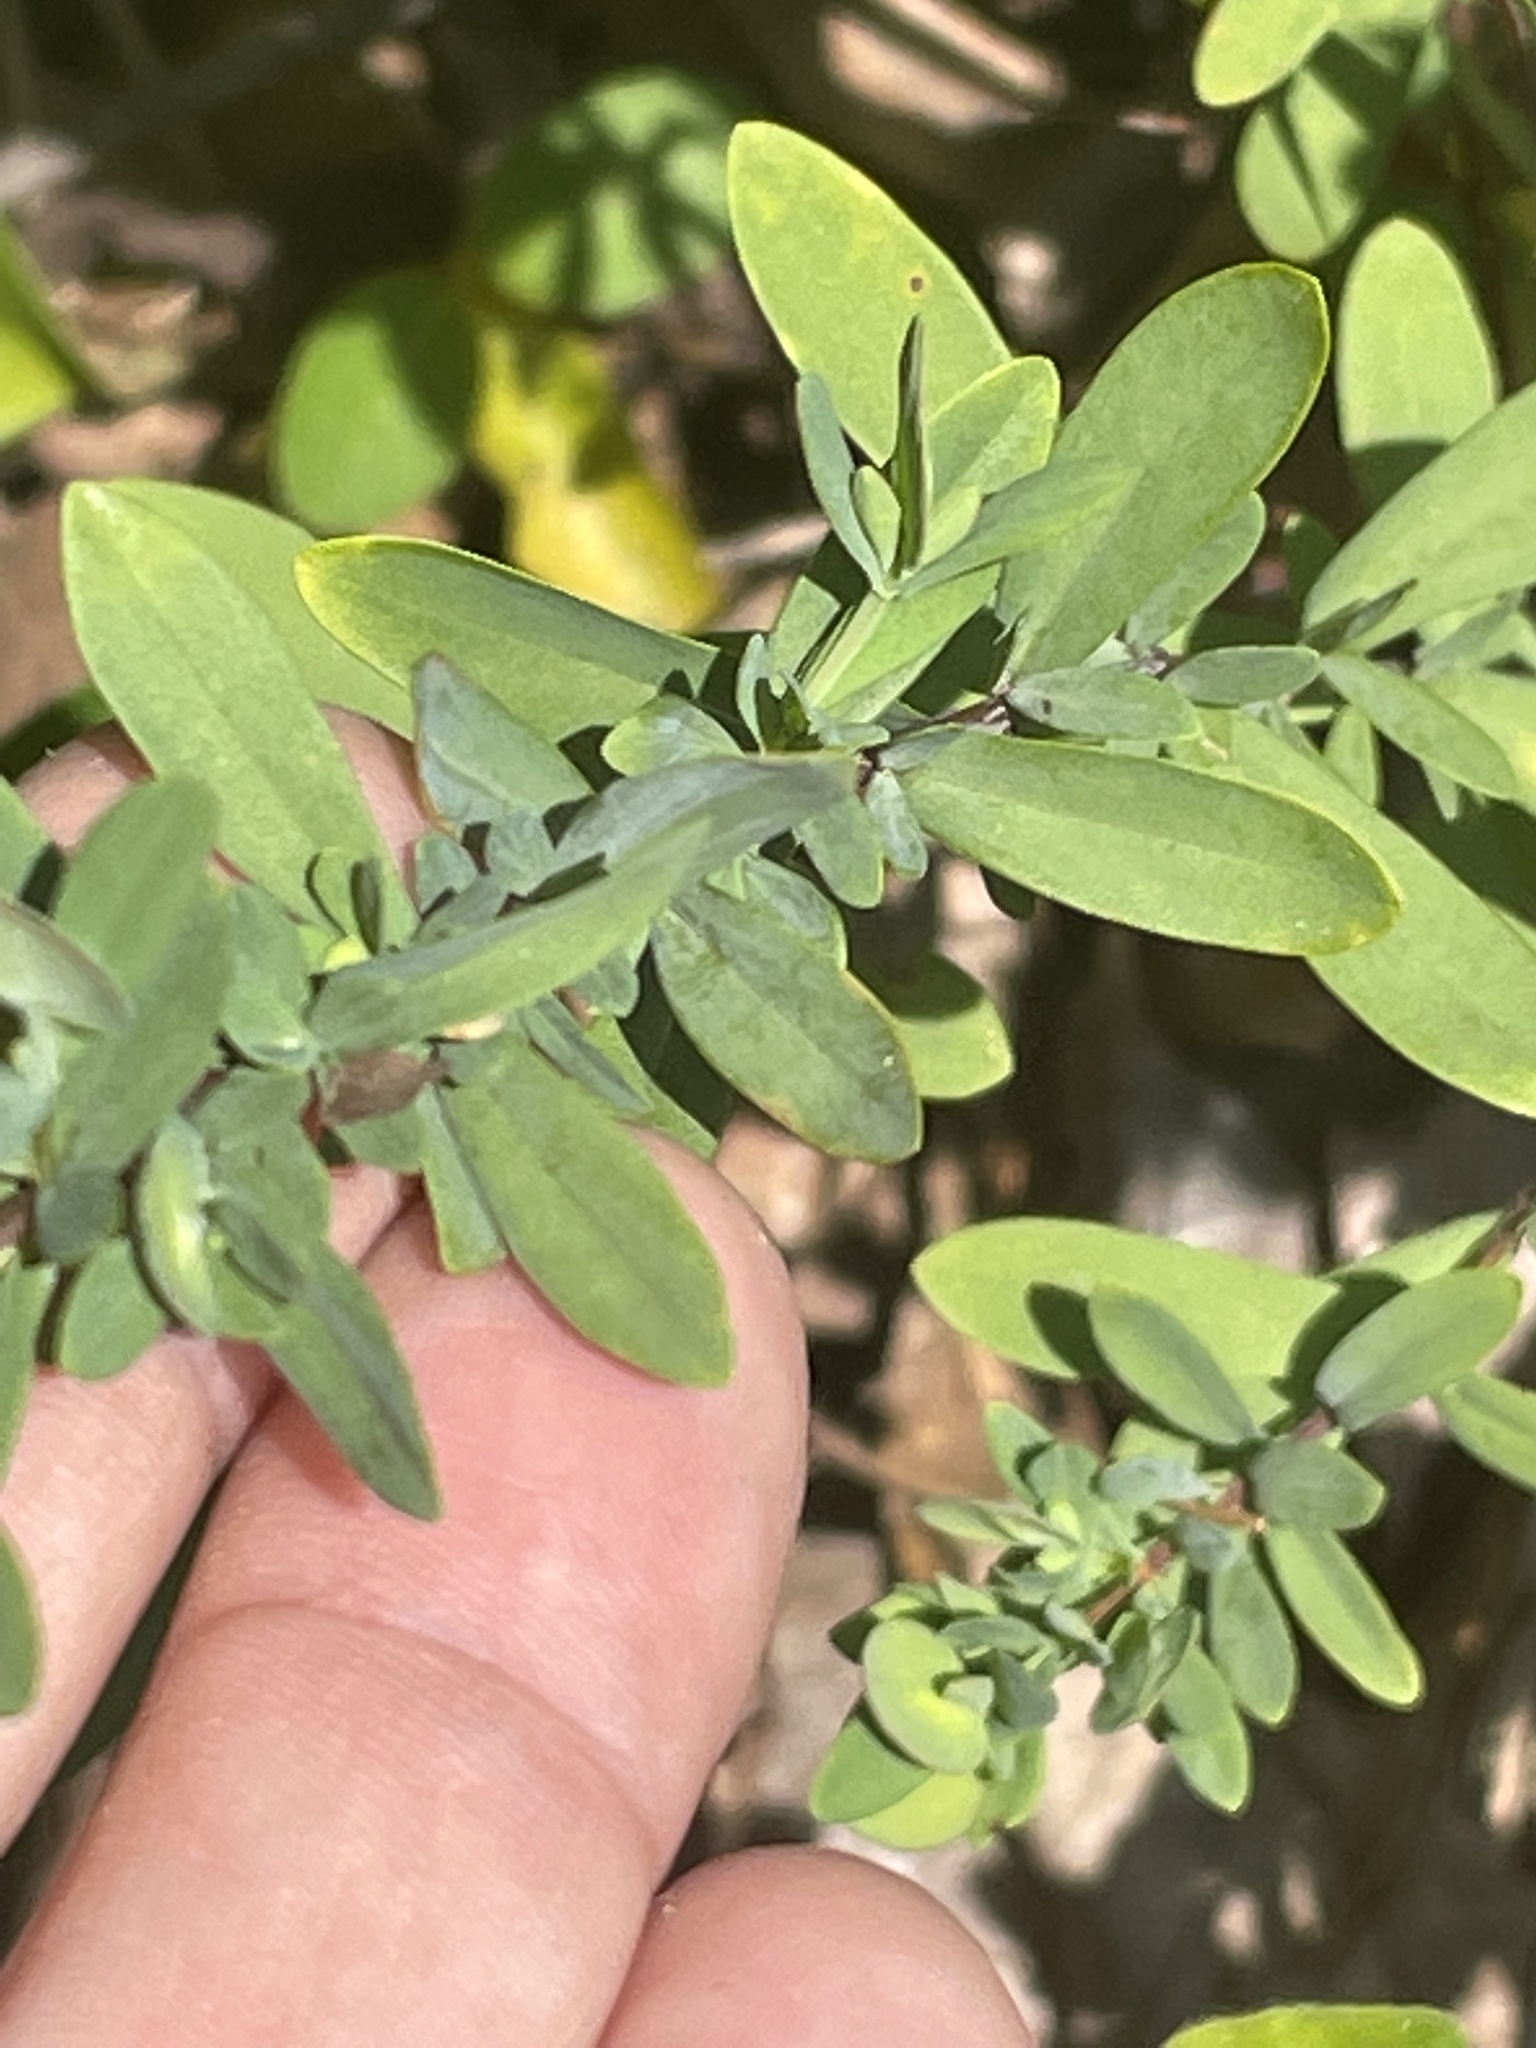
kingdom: Plantae
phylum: Tracheophyta
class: Magnoliopsida
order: Malpighiales
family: Hypericaceae
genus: Hypericum
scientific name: Hypericum hypericoides
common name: St. andrew's cross
